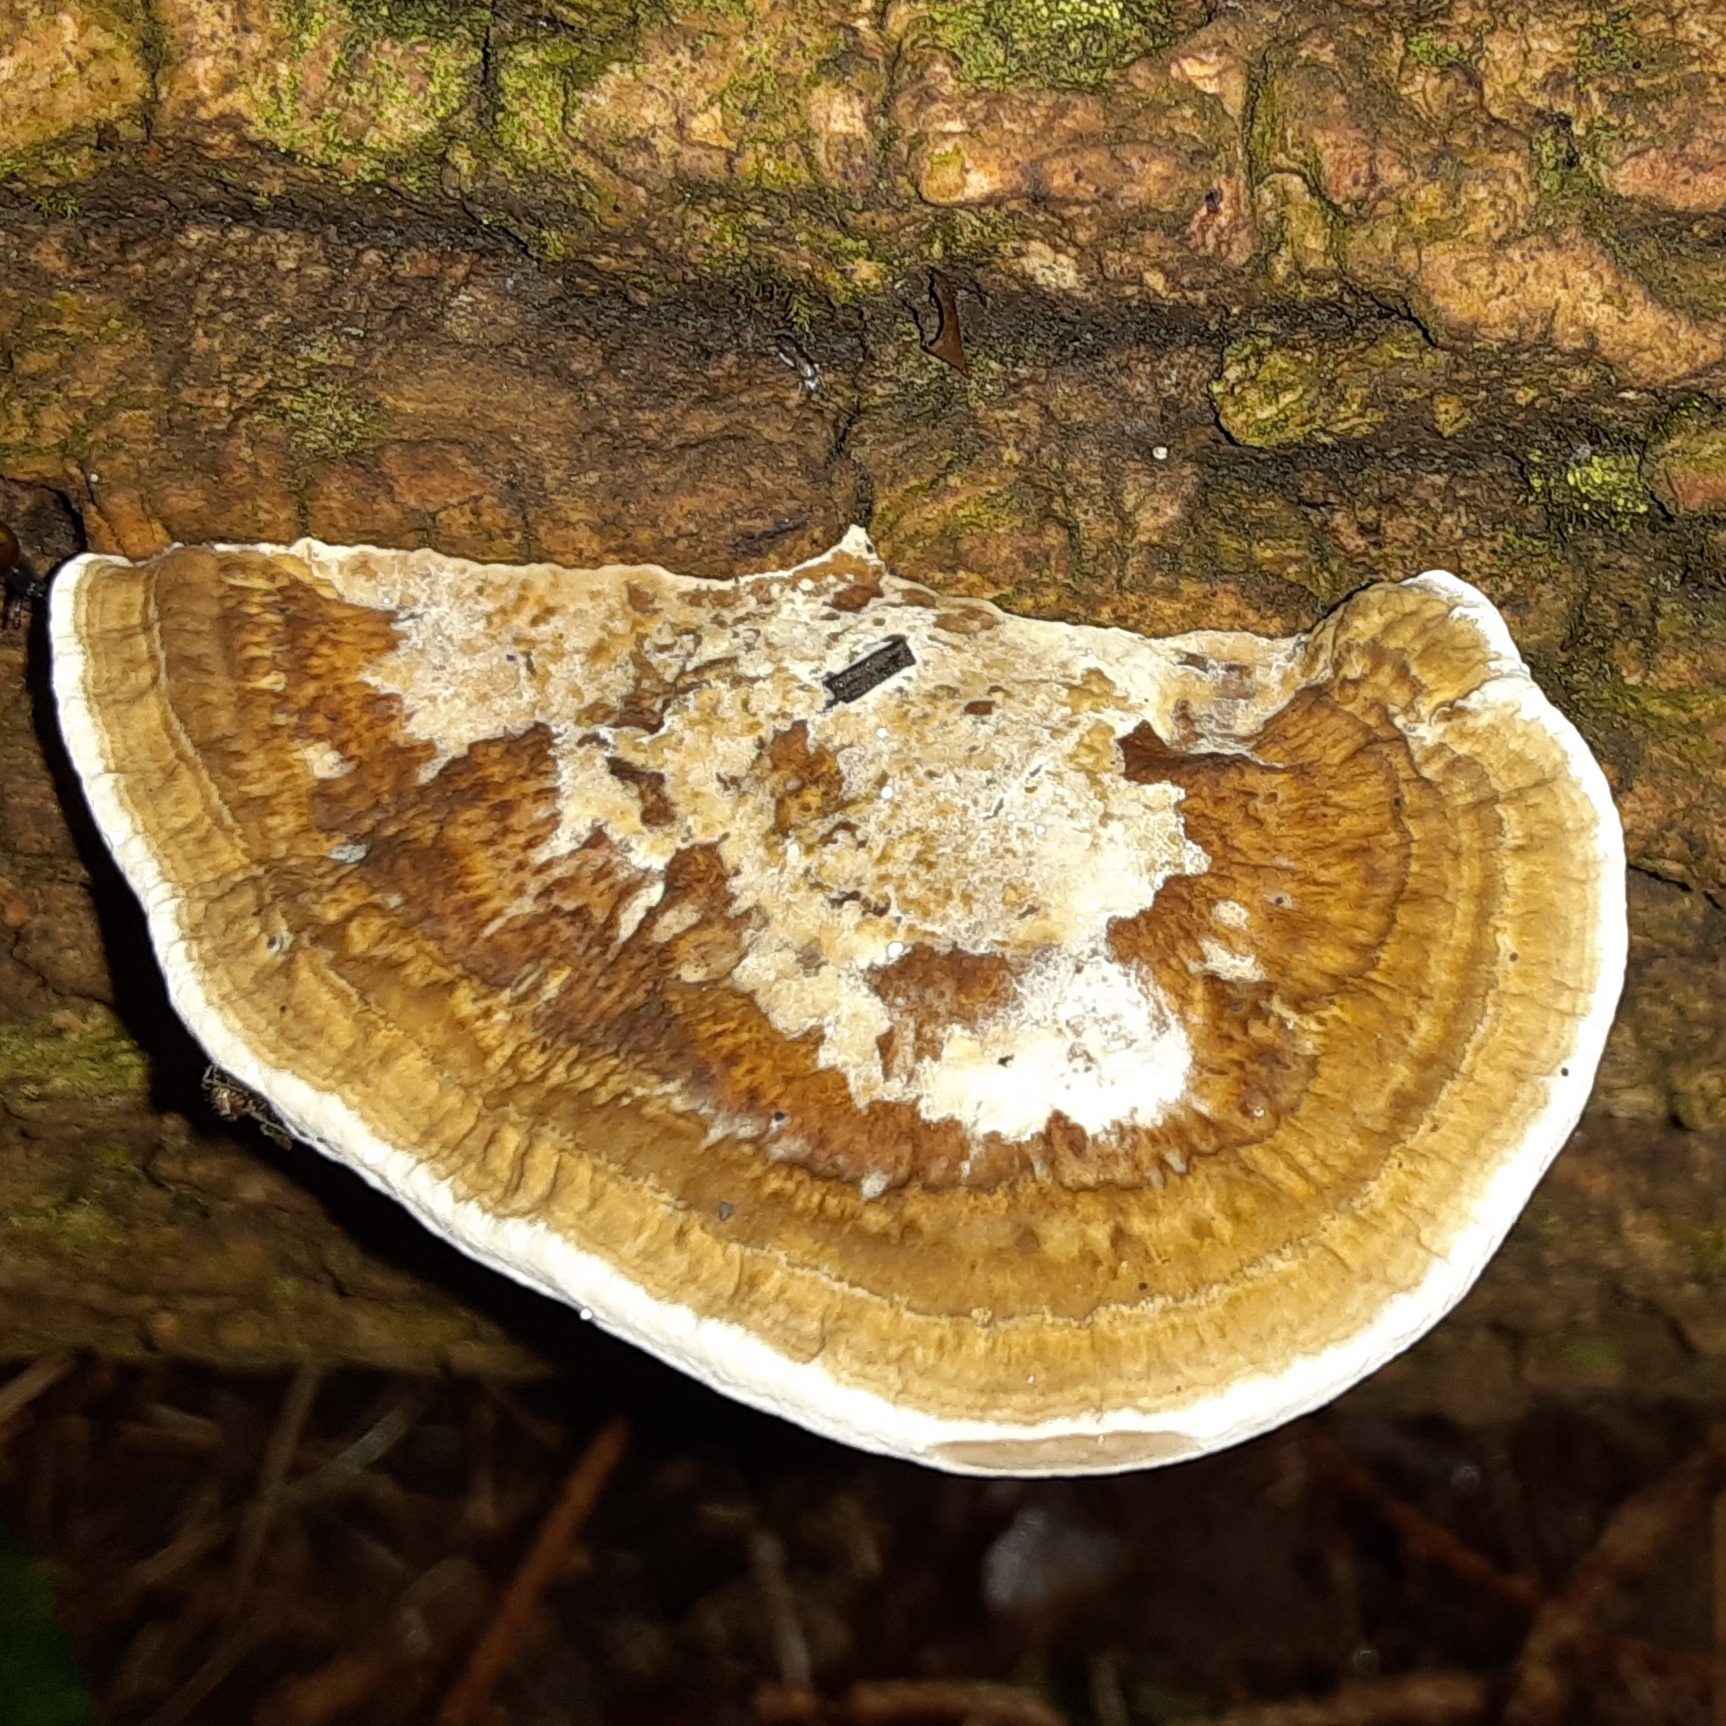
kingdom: Fungi
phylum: Basidiomycota
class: Agaricomycetes
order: Polyporales
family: Polyporaceae
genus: Daedaleopsis
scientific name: Daedaleopsis confragosa
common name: Blushing bracket
